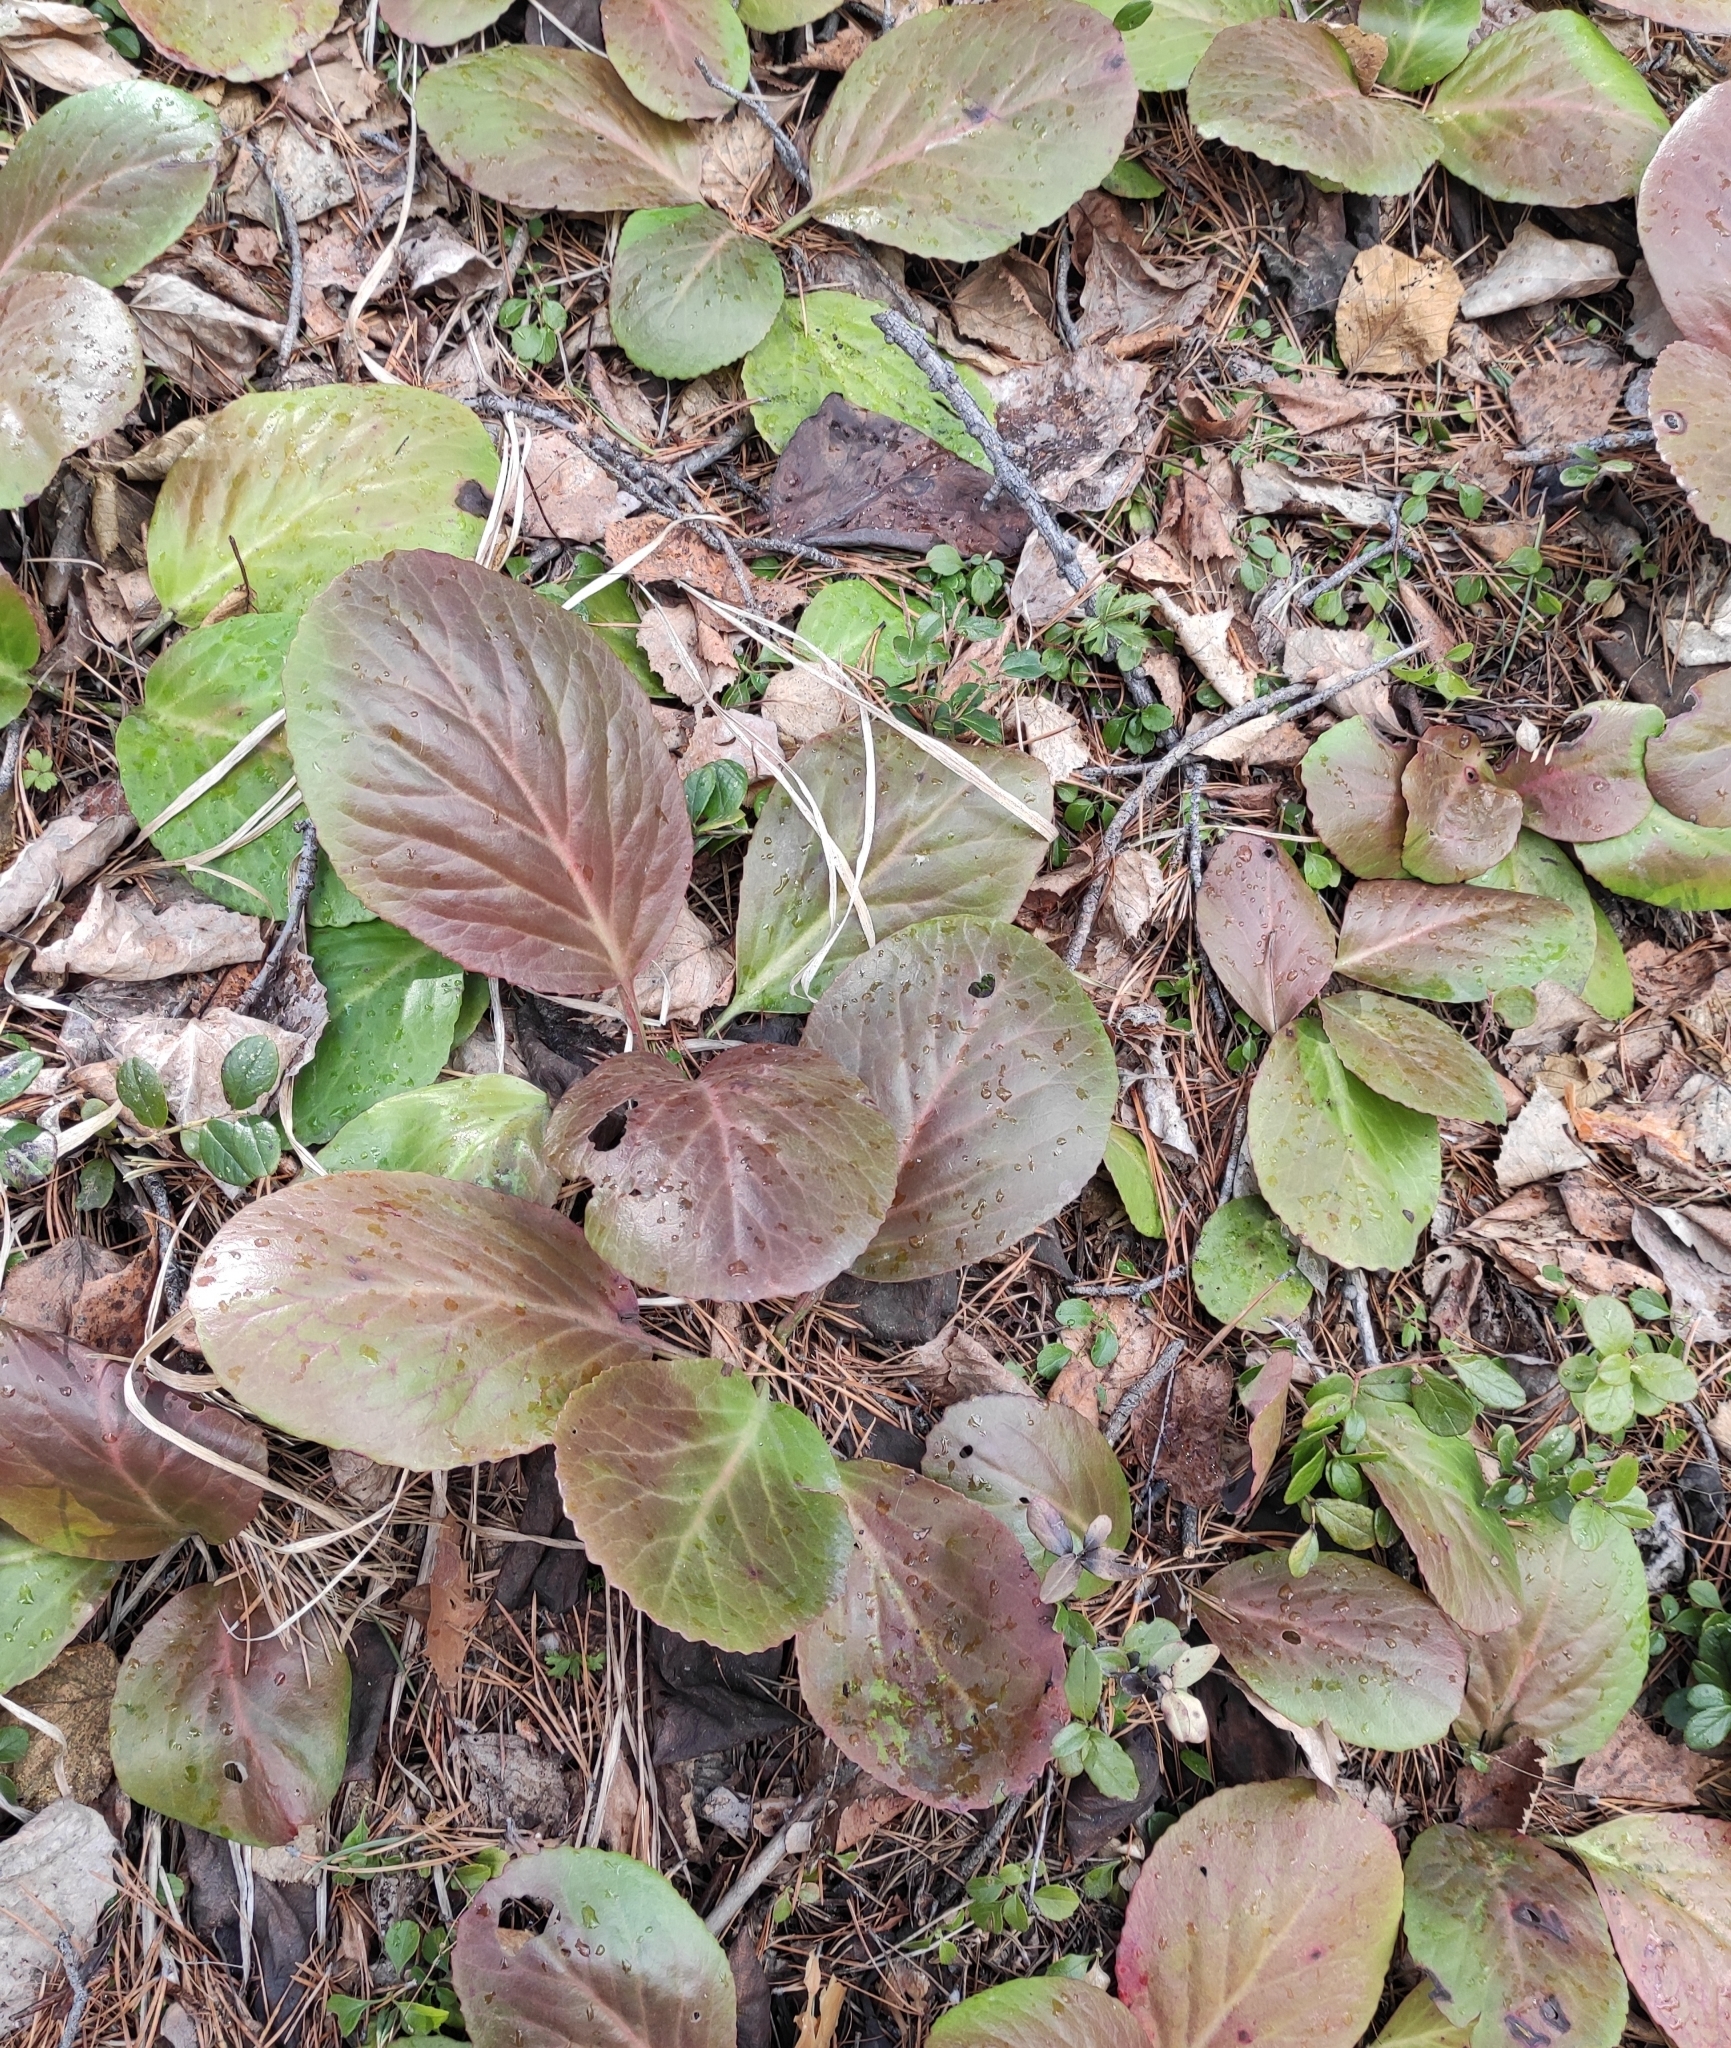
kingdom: Plantae
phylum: Tracheophyta
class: Magnoliopsida
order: Saxifragales
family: Saxifragaceae
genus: Bergenia
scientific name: Bergenia crassifolia
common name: Elephant-ears
